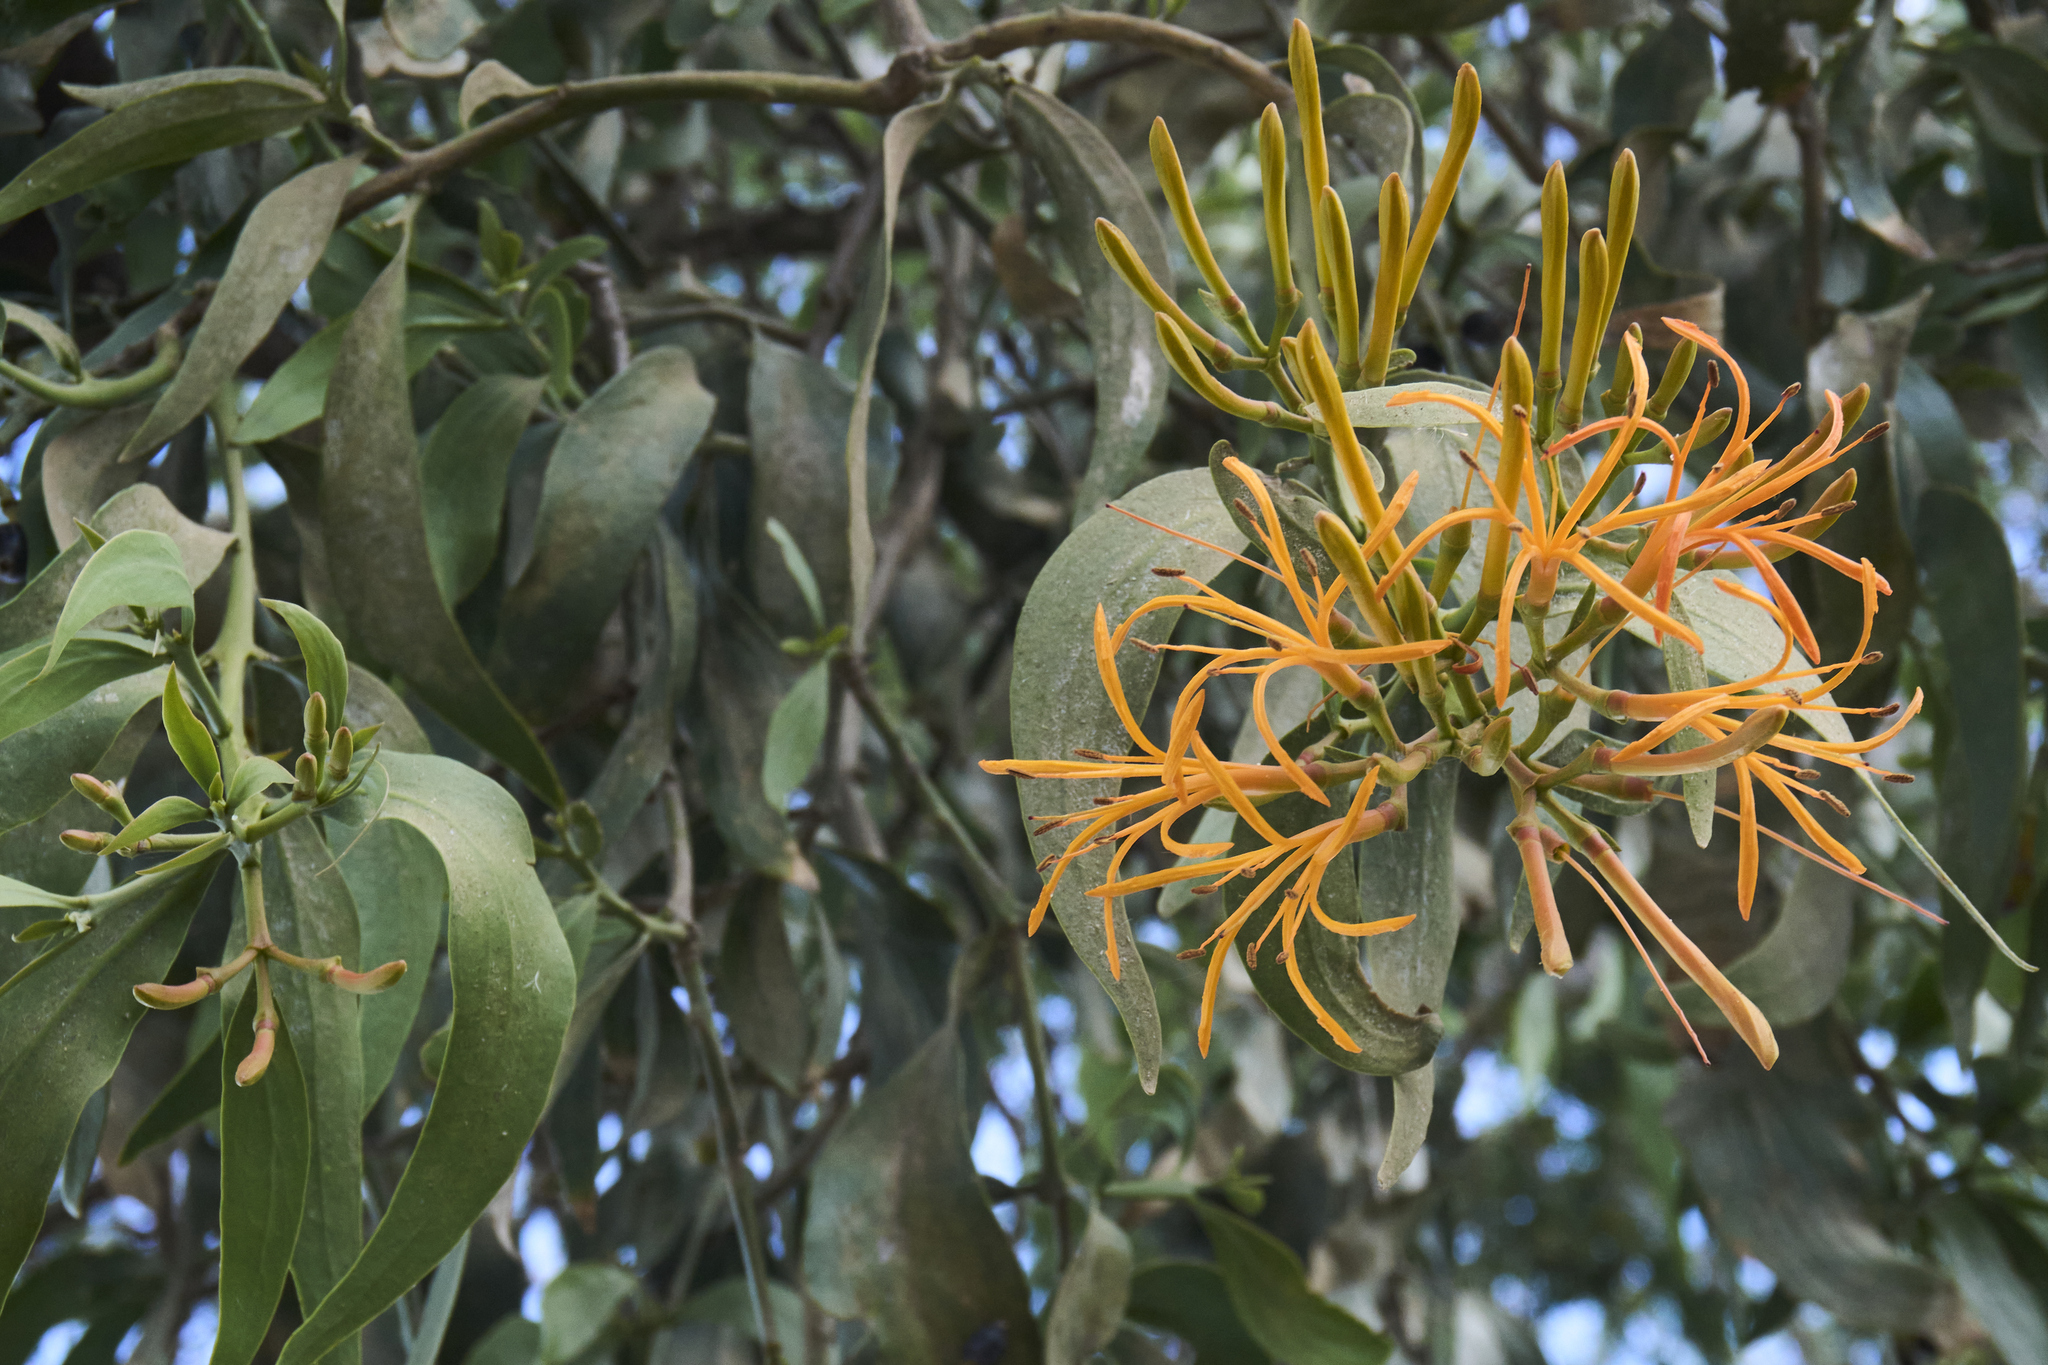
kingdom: Plantae
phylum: Tracheophyta
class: Magnoliopsida
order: Santalales
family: Loranthaceae
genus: Psittacanthus
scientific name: Psittacanthus calyculatus
